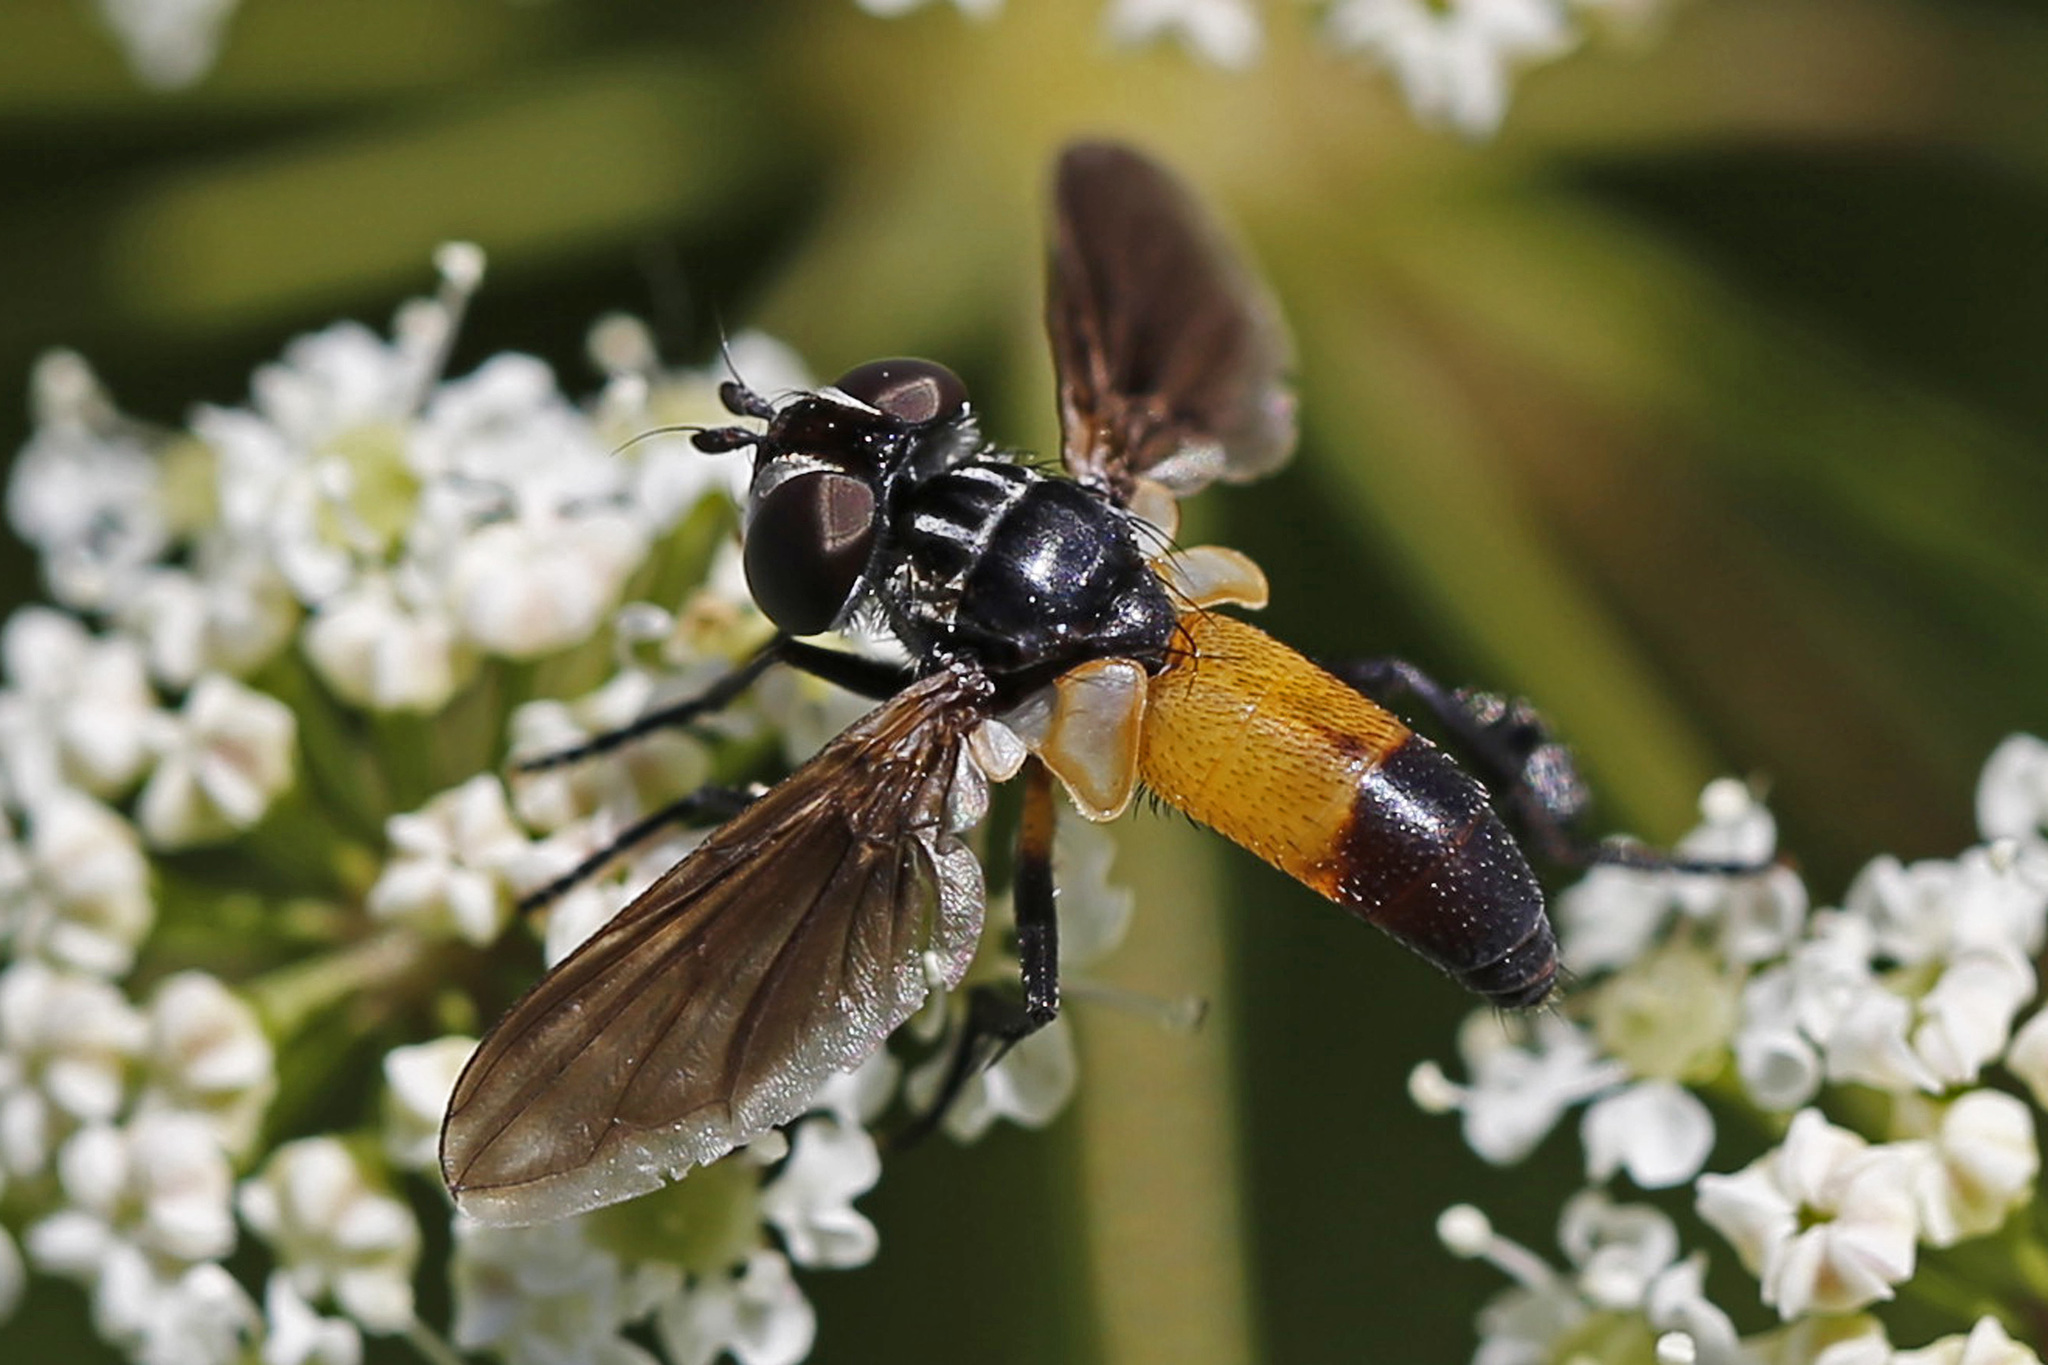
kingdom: Animalia
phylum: Arthropoda
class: Insecta
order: Diptera
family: Tachinidae
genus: Trichopoda
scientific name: Trichopoda pennipes
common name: Tachinid fly
